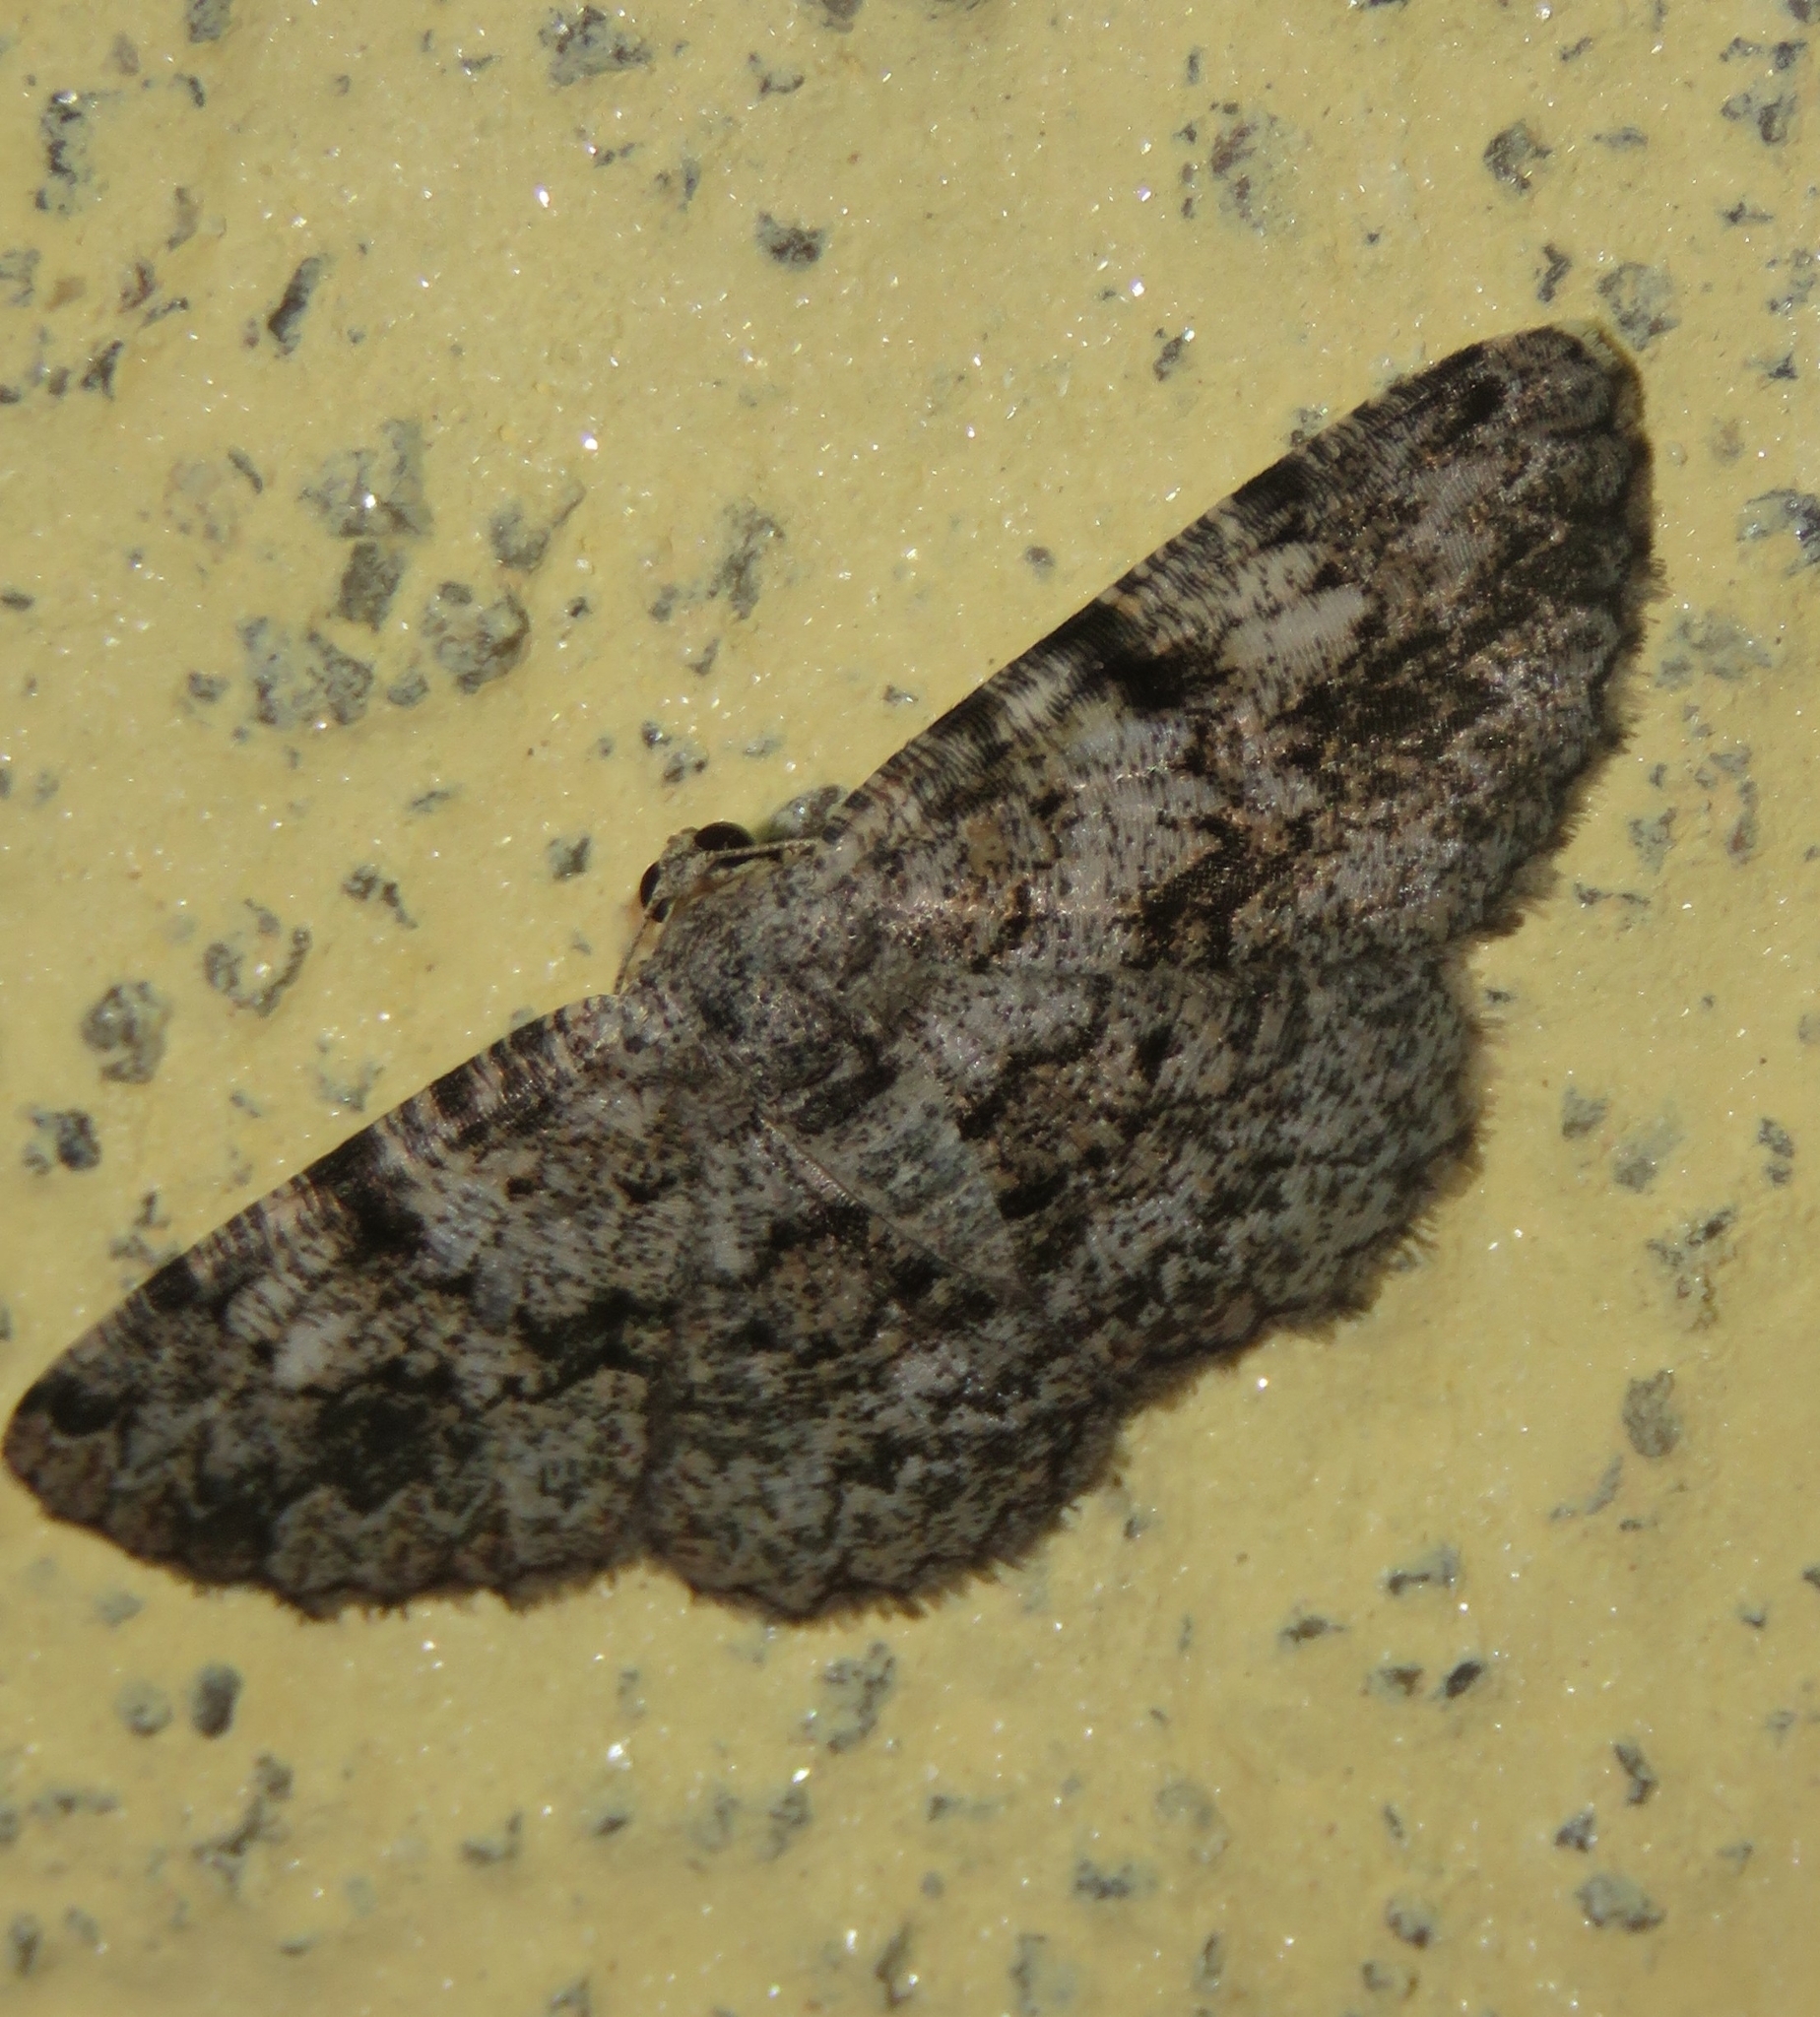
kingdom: Animalia
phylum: Arthropoda
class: Insecta
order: Lepidoptera
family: Geometridae
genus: Ectropidia
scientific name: Ectropidia shoreae
